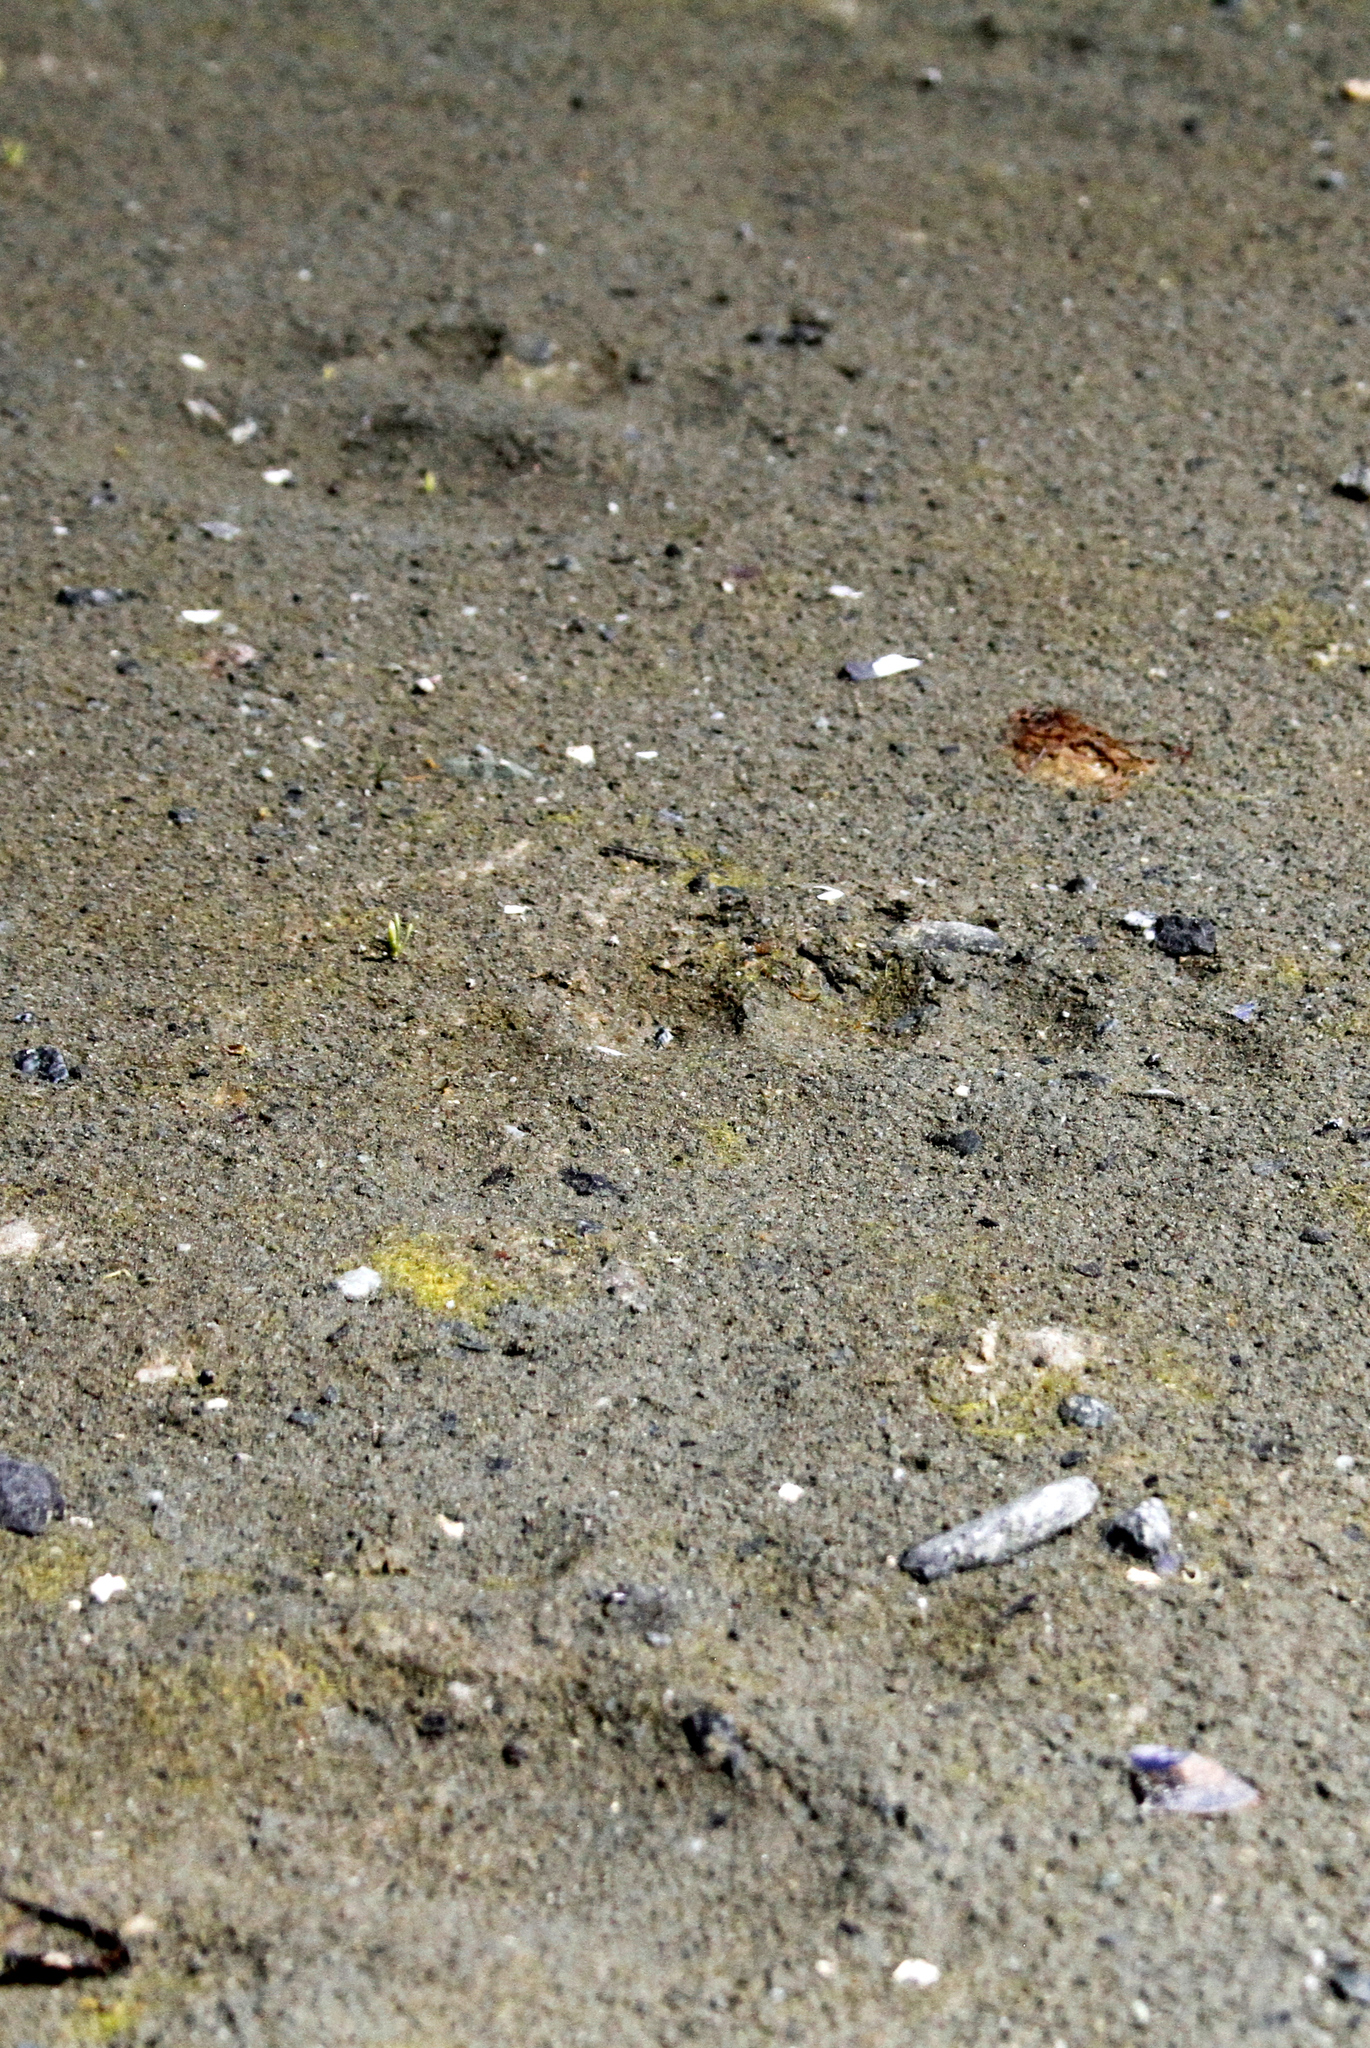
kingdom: Animalia
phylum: Chordata
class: Mammalia
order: Carnivora
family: Ursidae
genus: Ursus
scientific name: Ursus arctos
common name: Brown bear
